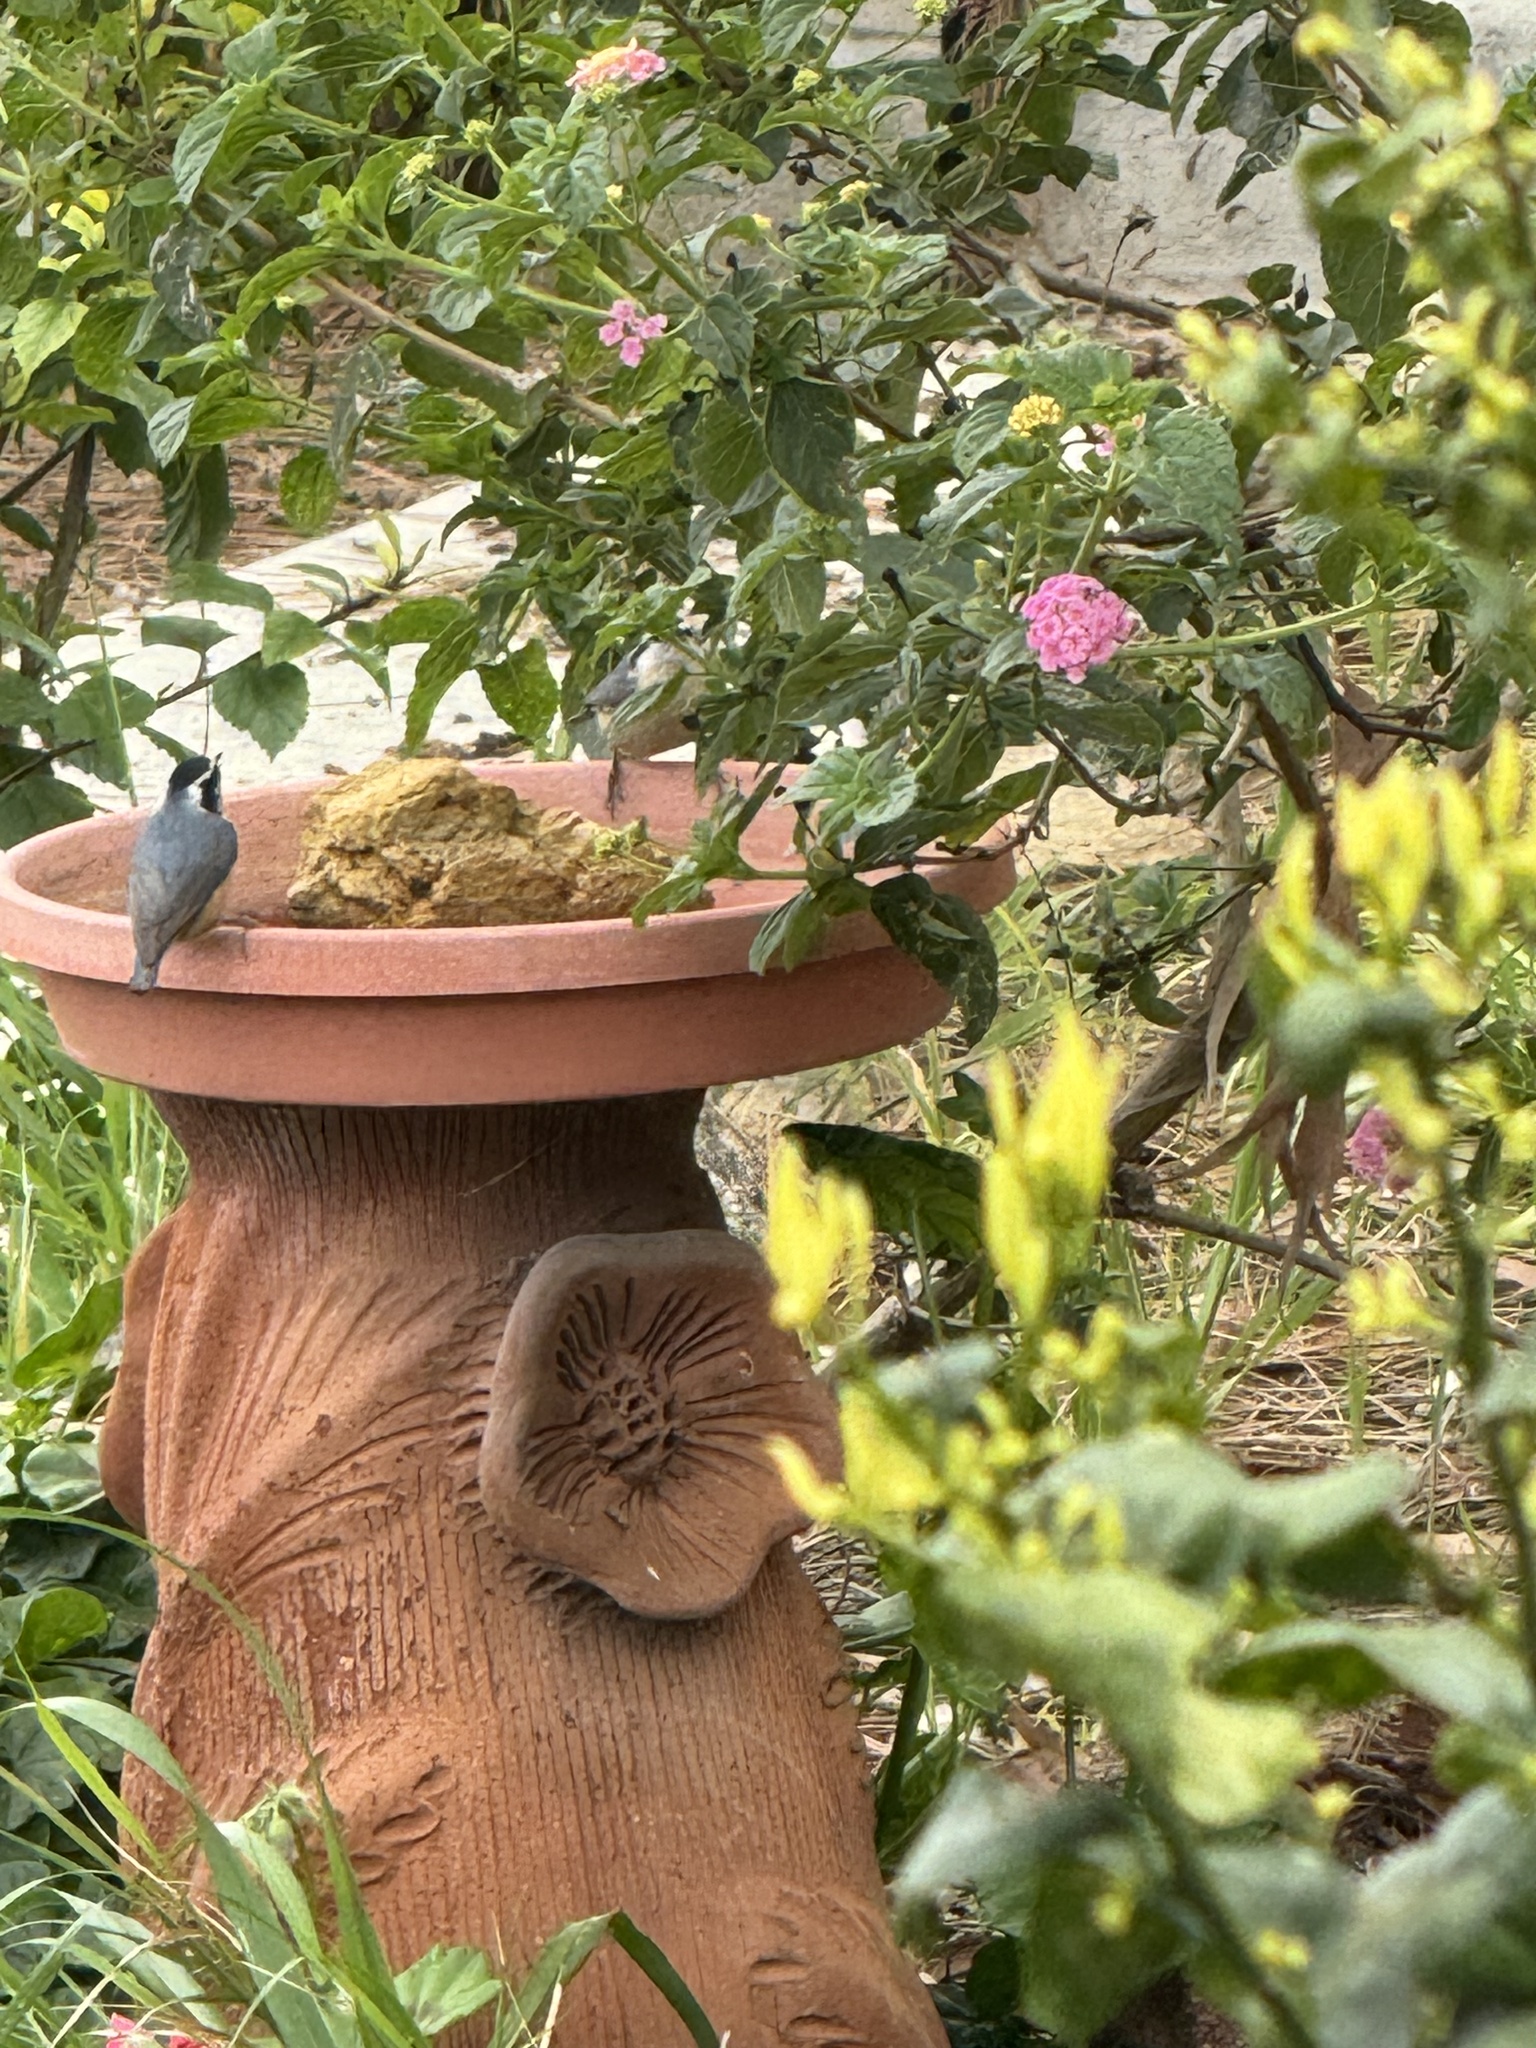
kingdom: Animalia
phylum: Chordata
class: Aves
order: Passeriformes
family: Sittidae
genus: Sitta
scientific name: Sitta canadensis
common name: Red-breasted nuthatch
